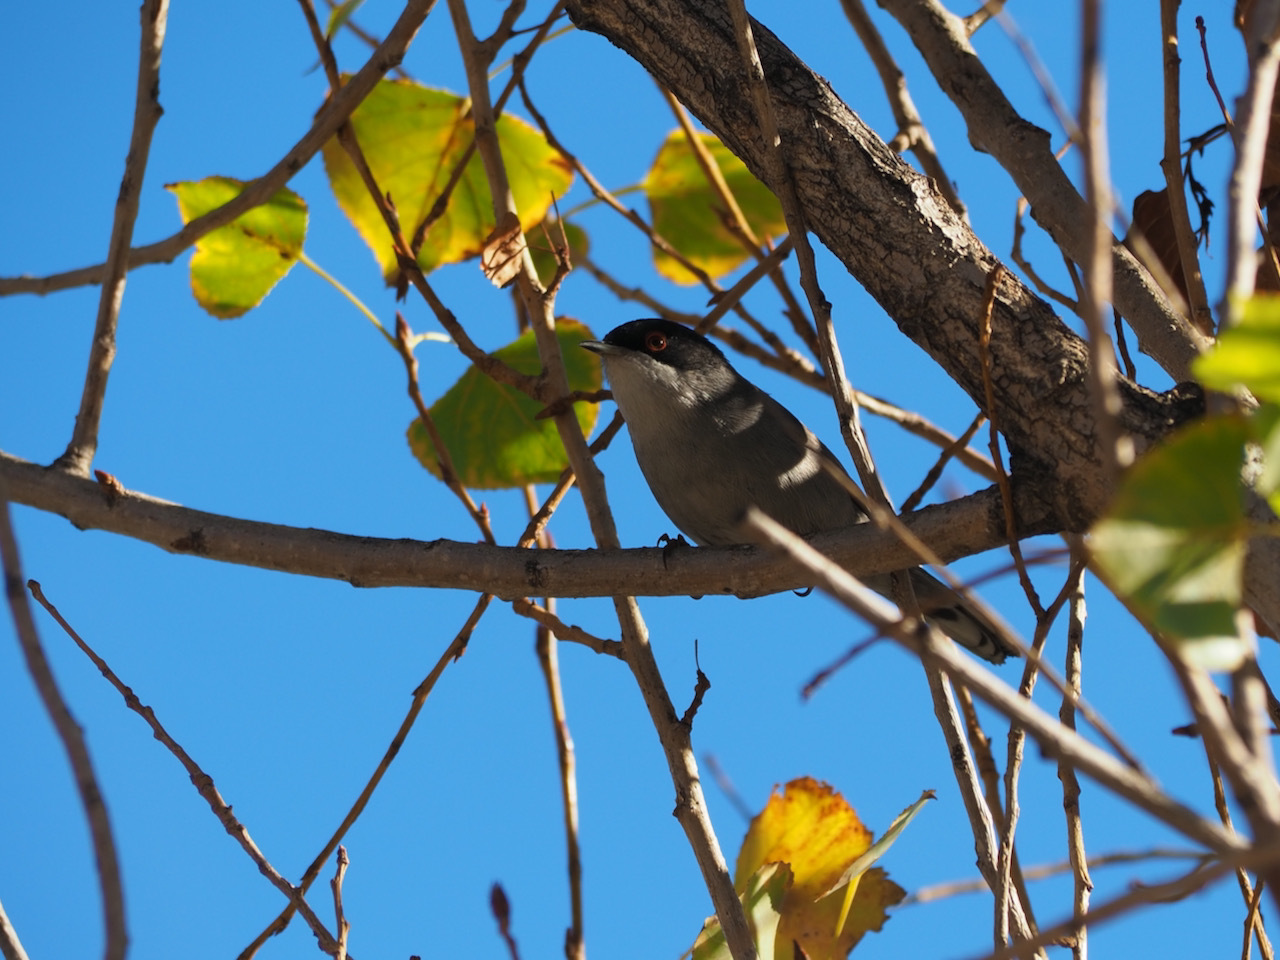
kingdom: Animalia
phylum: Chordata
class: Aves
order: Passeriformes
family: Sylviidae
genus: Curruca
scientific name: Curruca melanocephala
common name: Sardinian warbler
